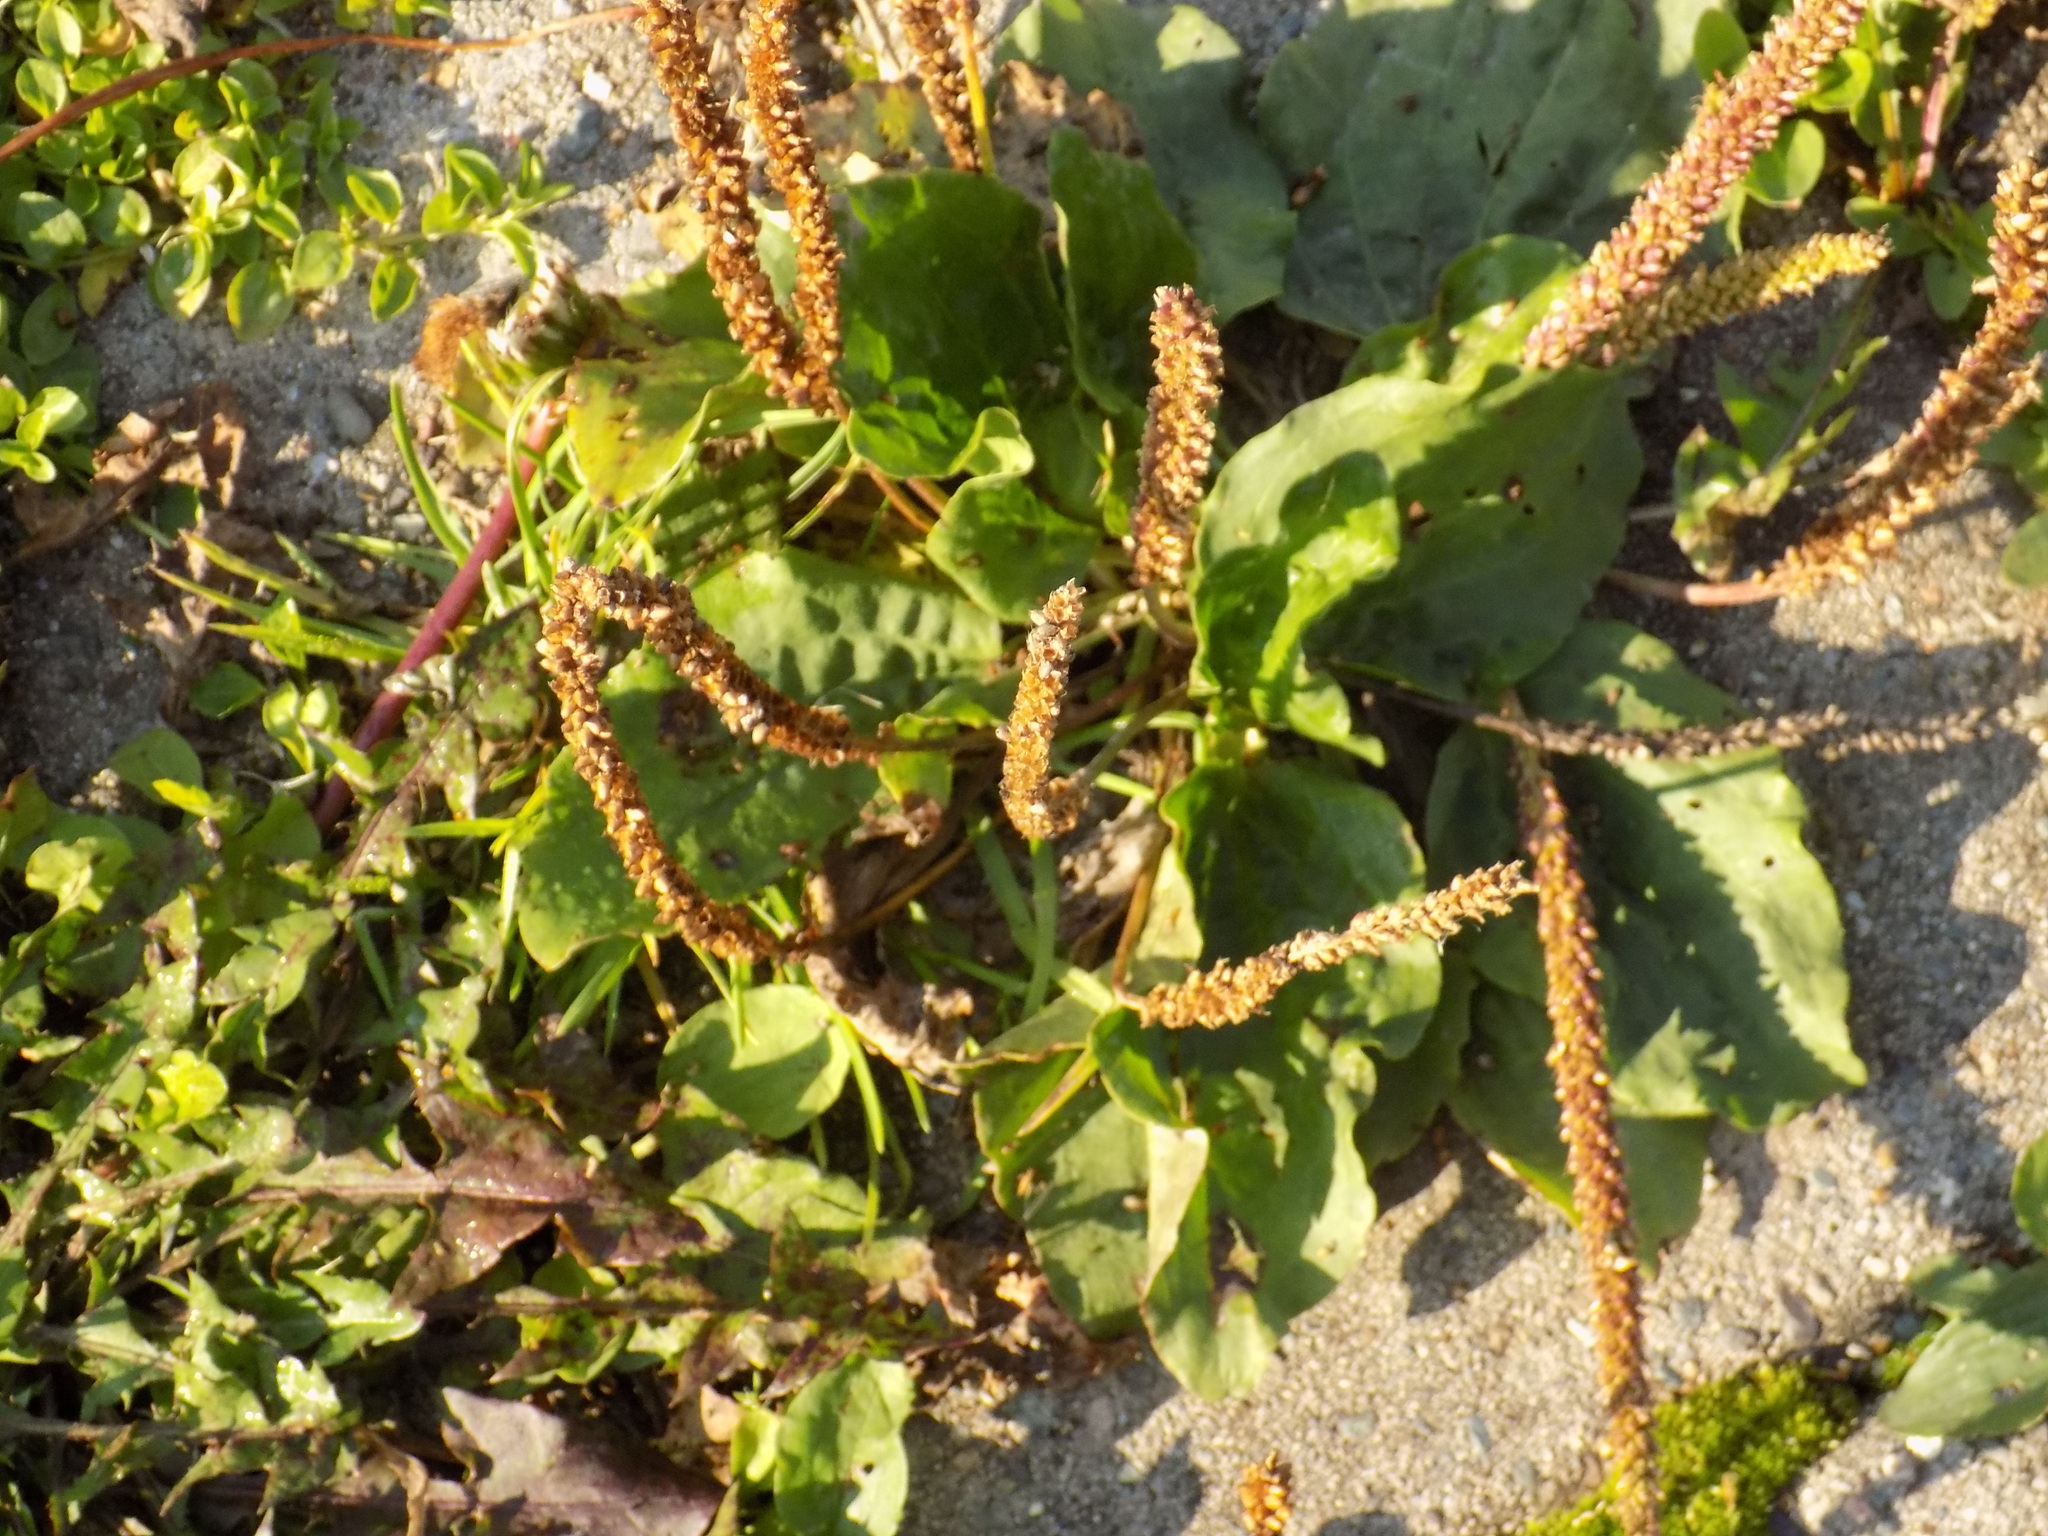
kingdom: Plantae
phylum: Tracheophyta
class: Magnoliopsida
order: Lamiales
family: Plantaginaceae
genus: Plantago
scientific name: Plantago major
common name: Common plantain
